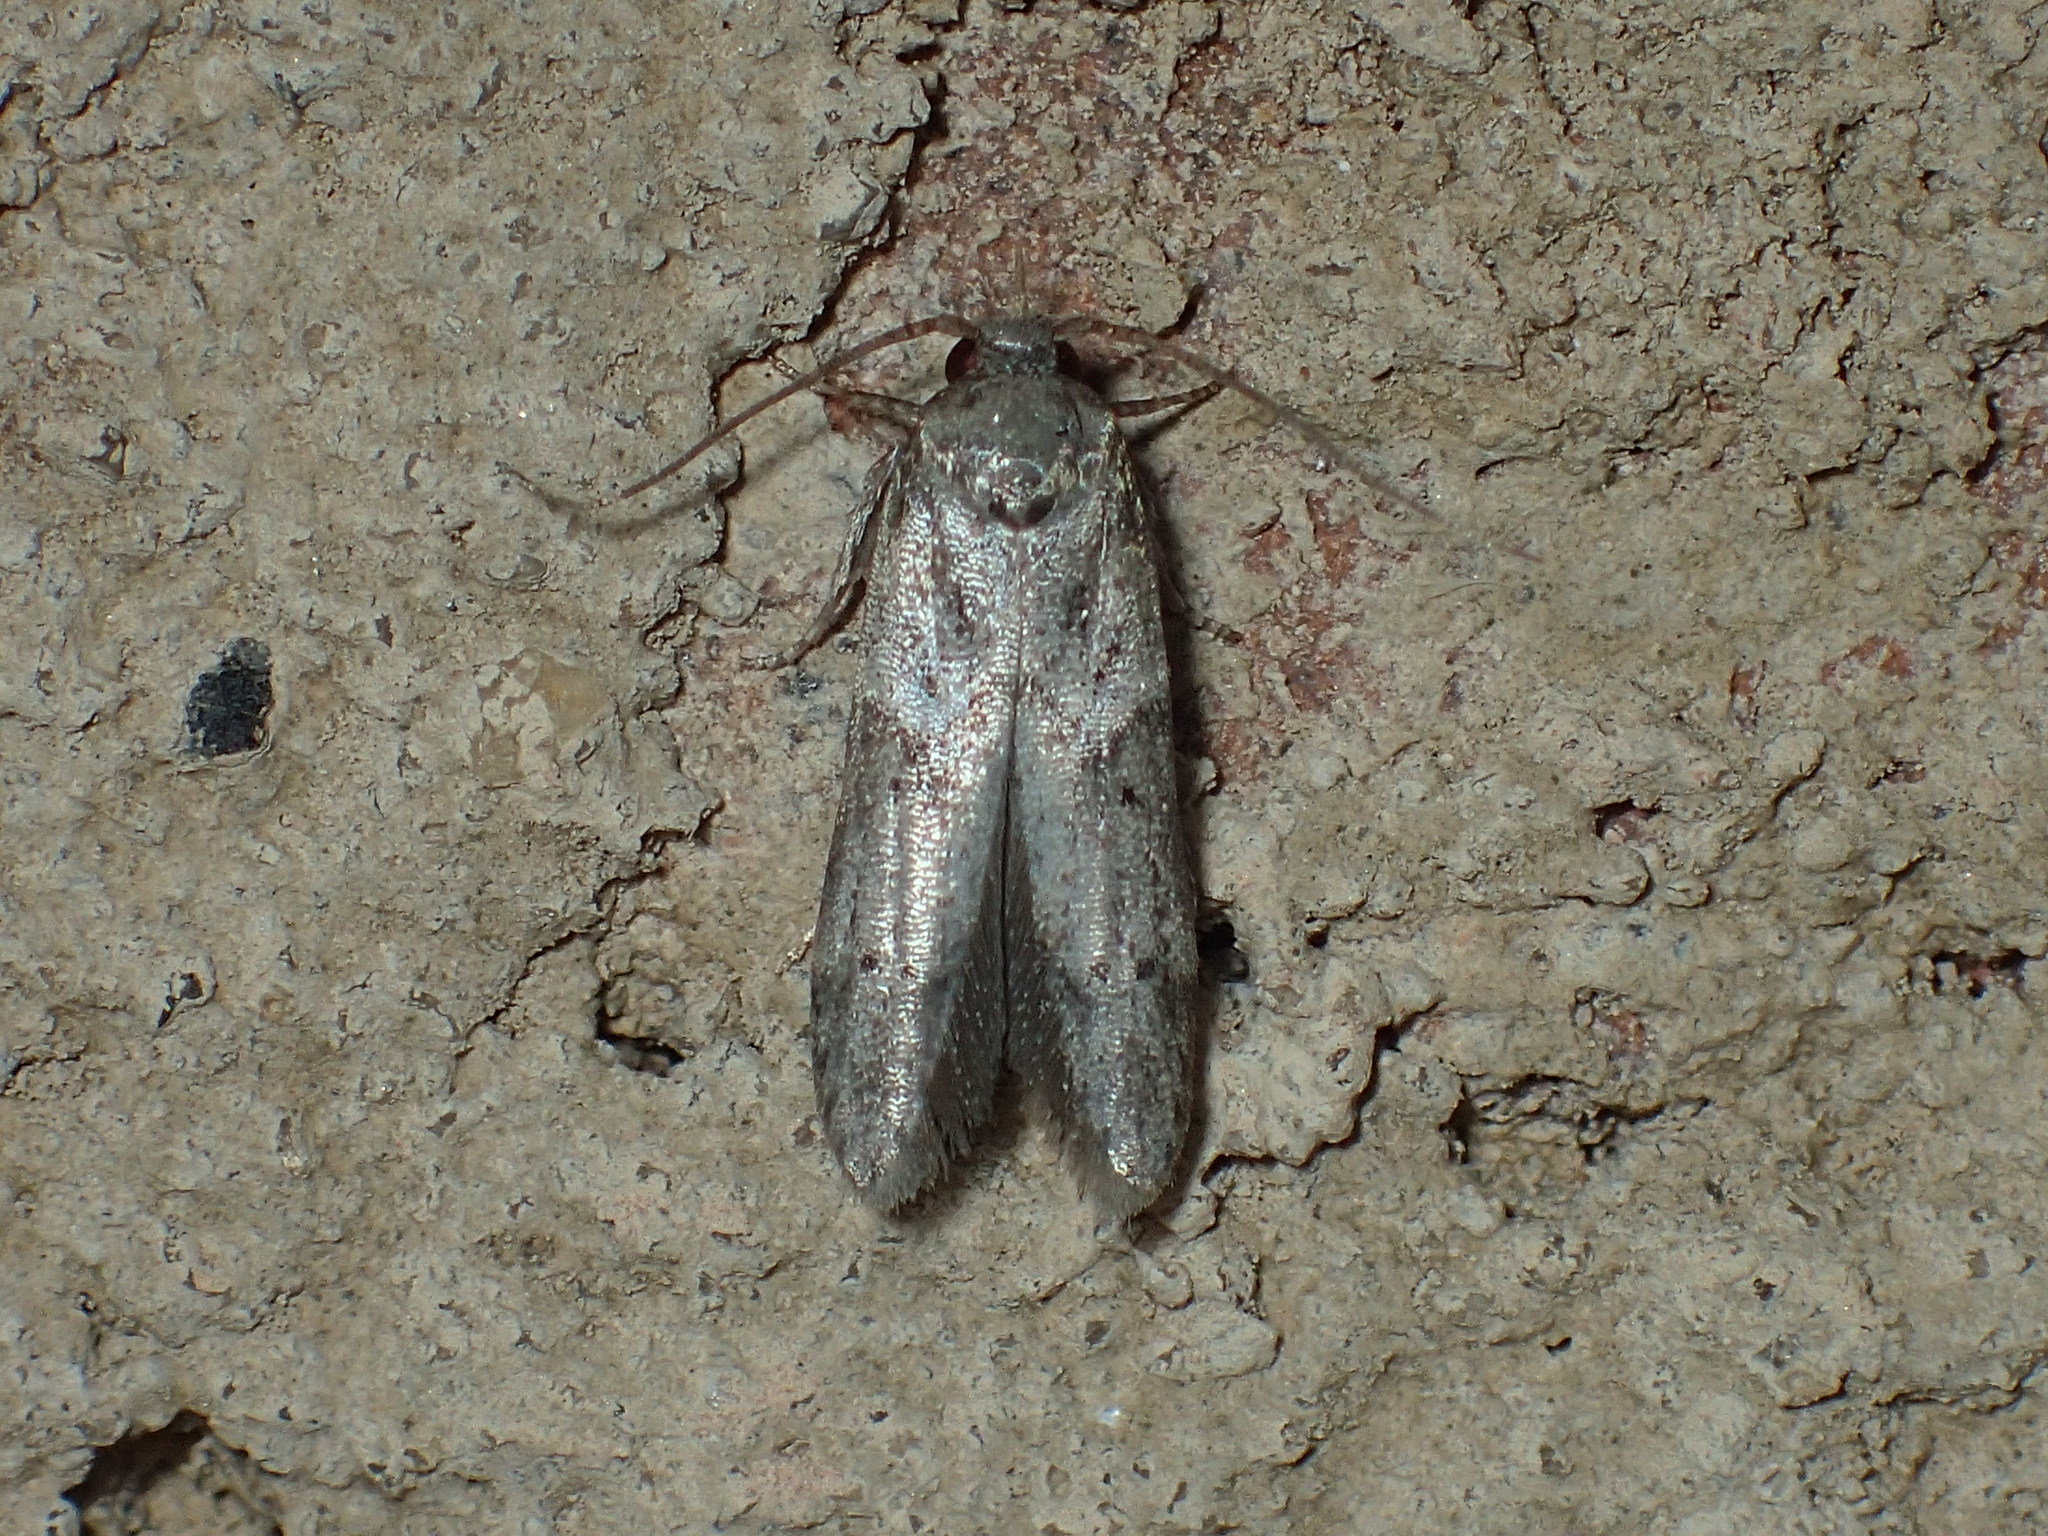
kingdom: Animalia
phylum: Arthropoda
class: Insecta
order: Lepidoptera
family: Blastobasidae
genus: Blastobasis
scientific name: Blastobasis glandulella
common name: Acorn moth
